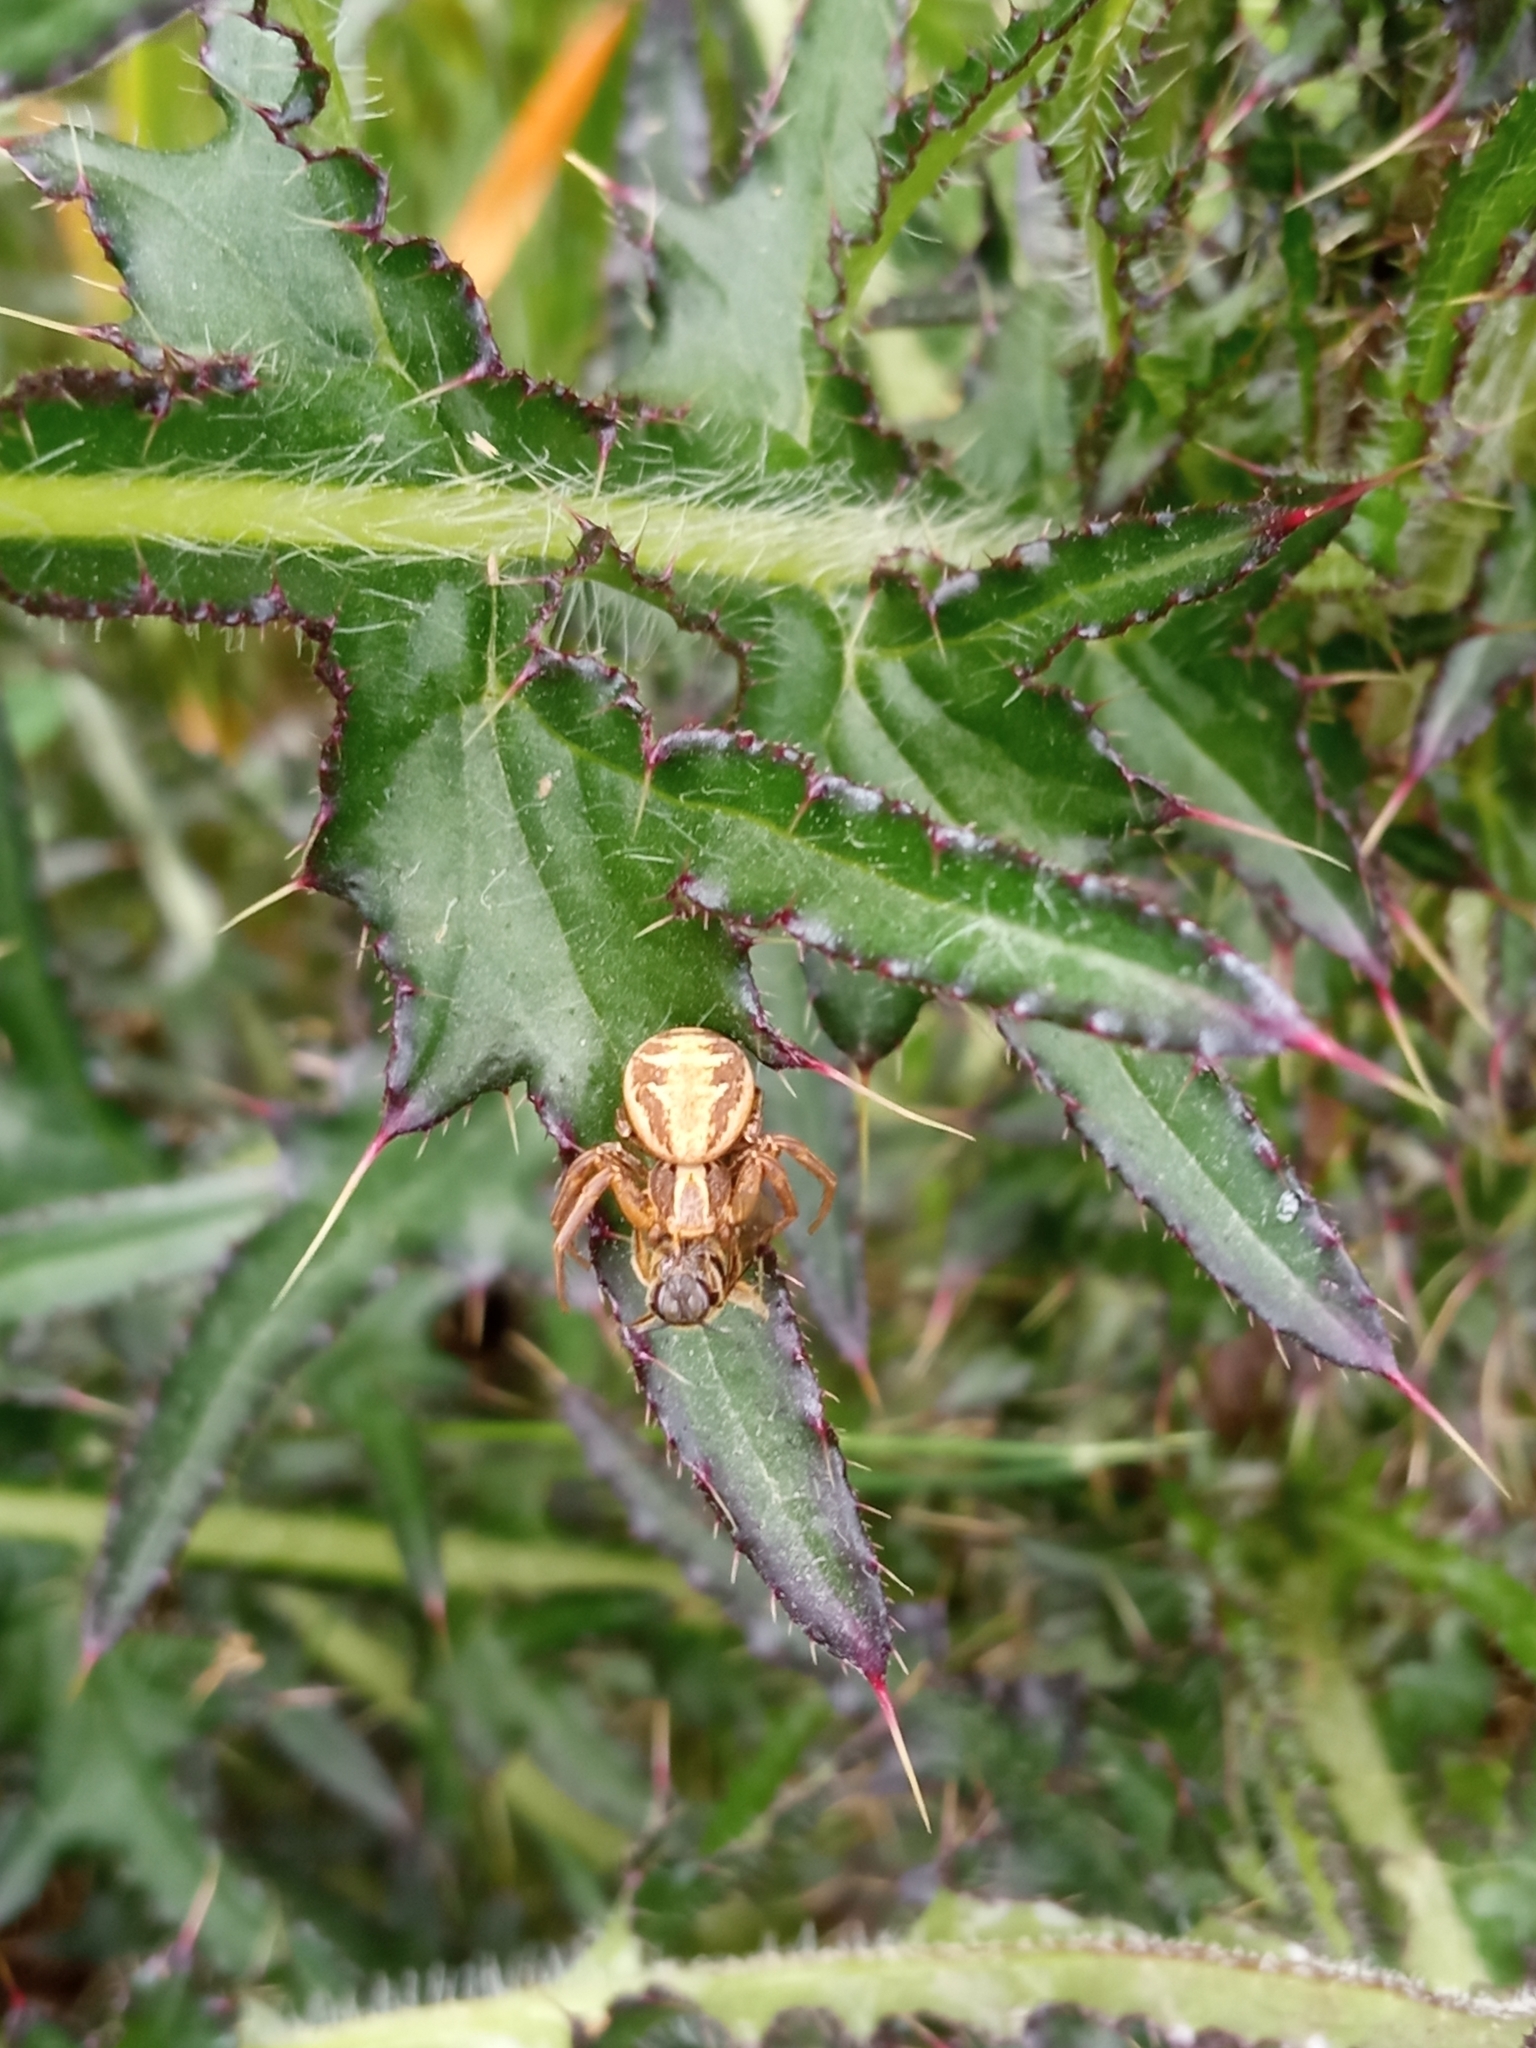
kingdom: Animalia
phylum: Arthropoda
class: Arachnida
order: Araneae
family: Thomisidae
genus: Xysticus
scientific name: Xysticus
